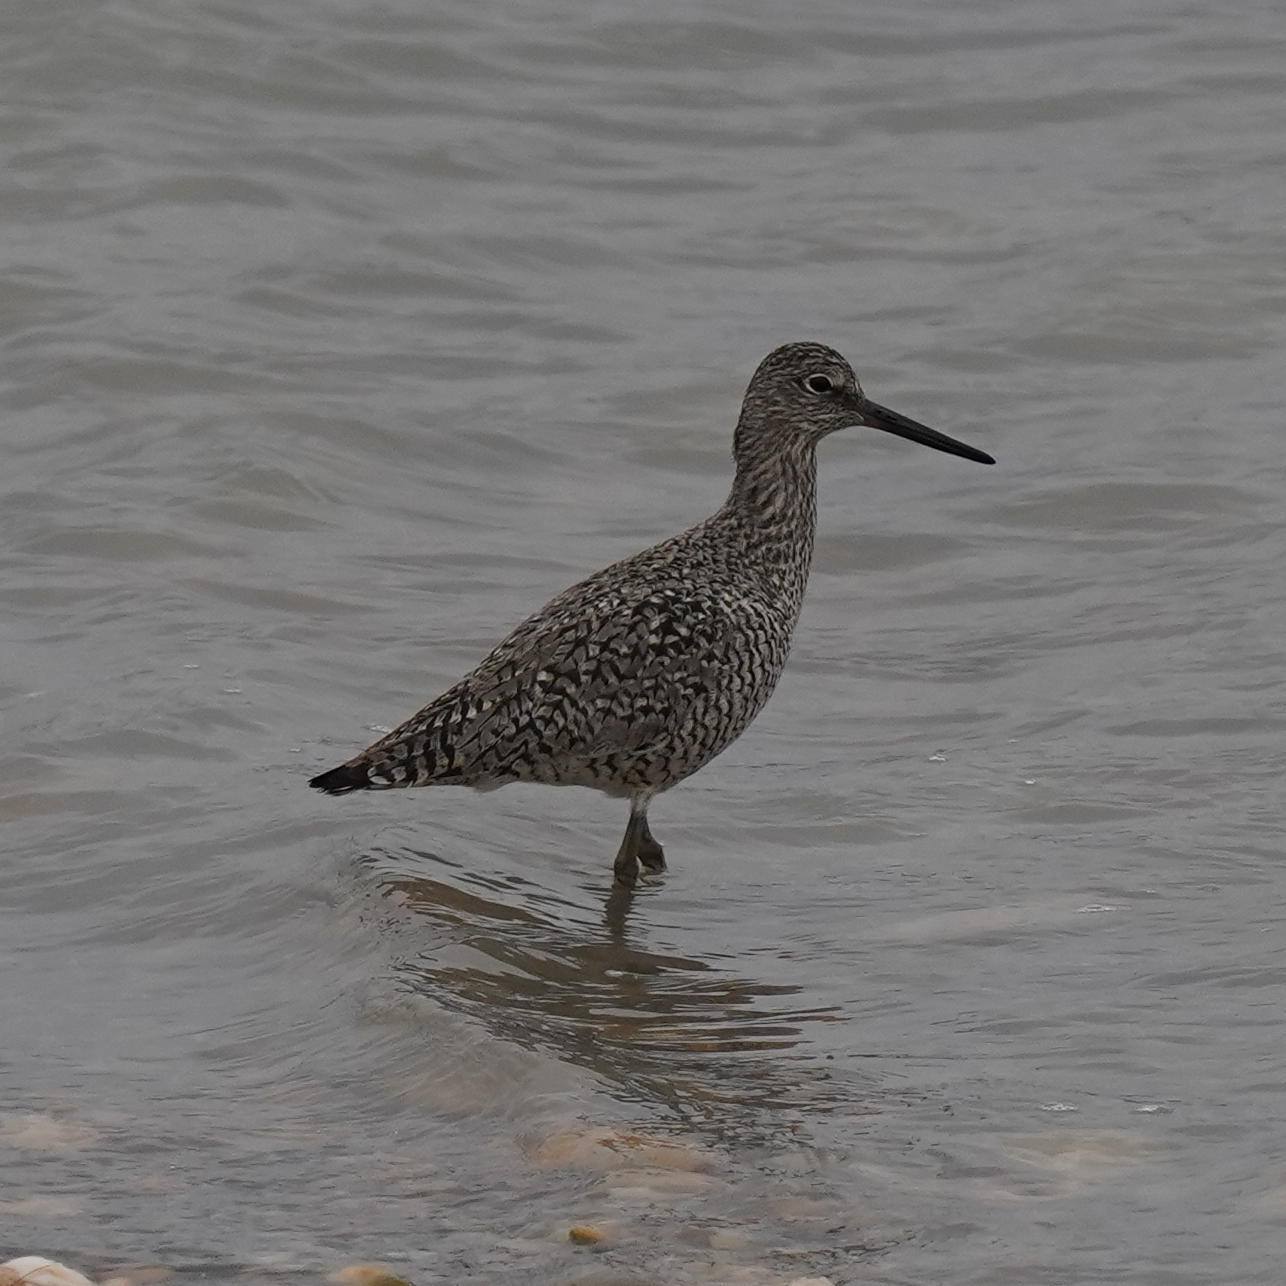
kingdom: Animalia
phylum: Chordata
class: Aves
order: Charadriiformes
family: Scolopacidae
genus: Tringa
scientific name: Tringa semipalmata
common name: Willet
